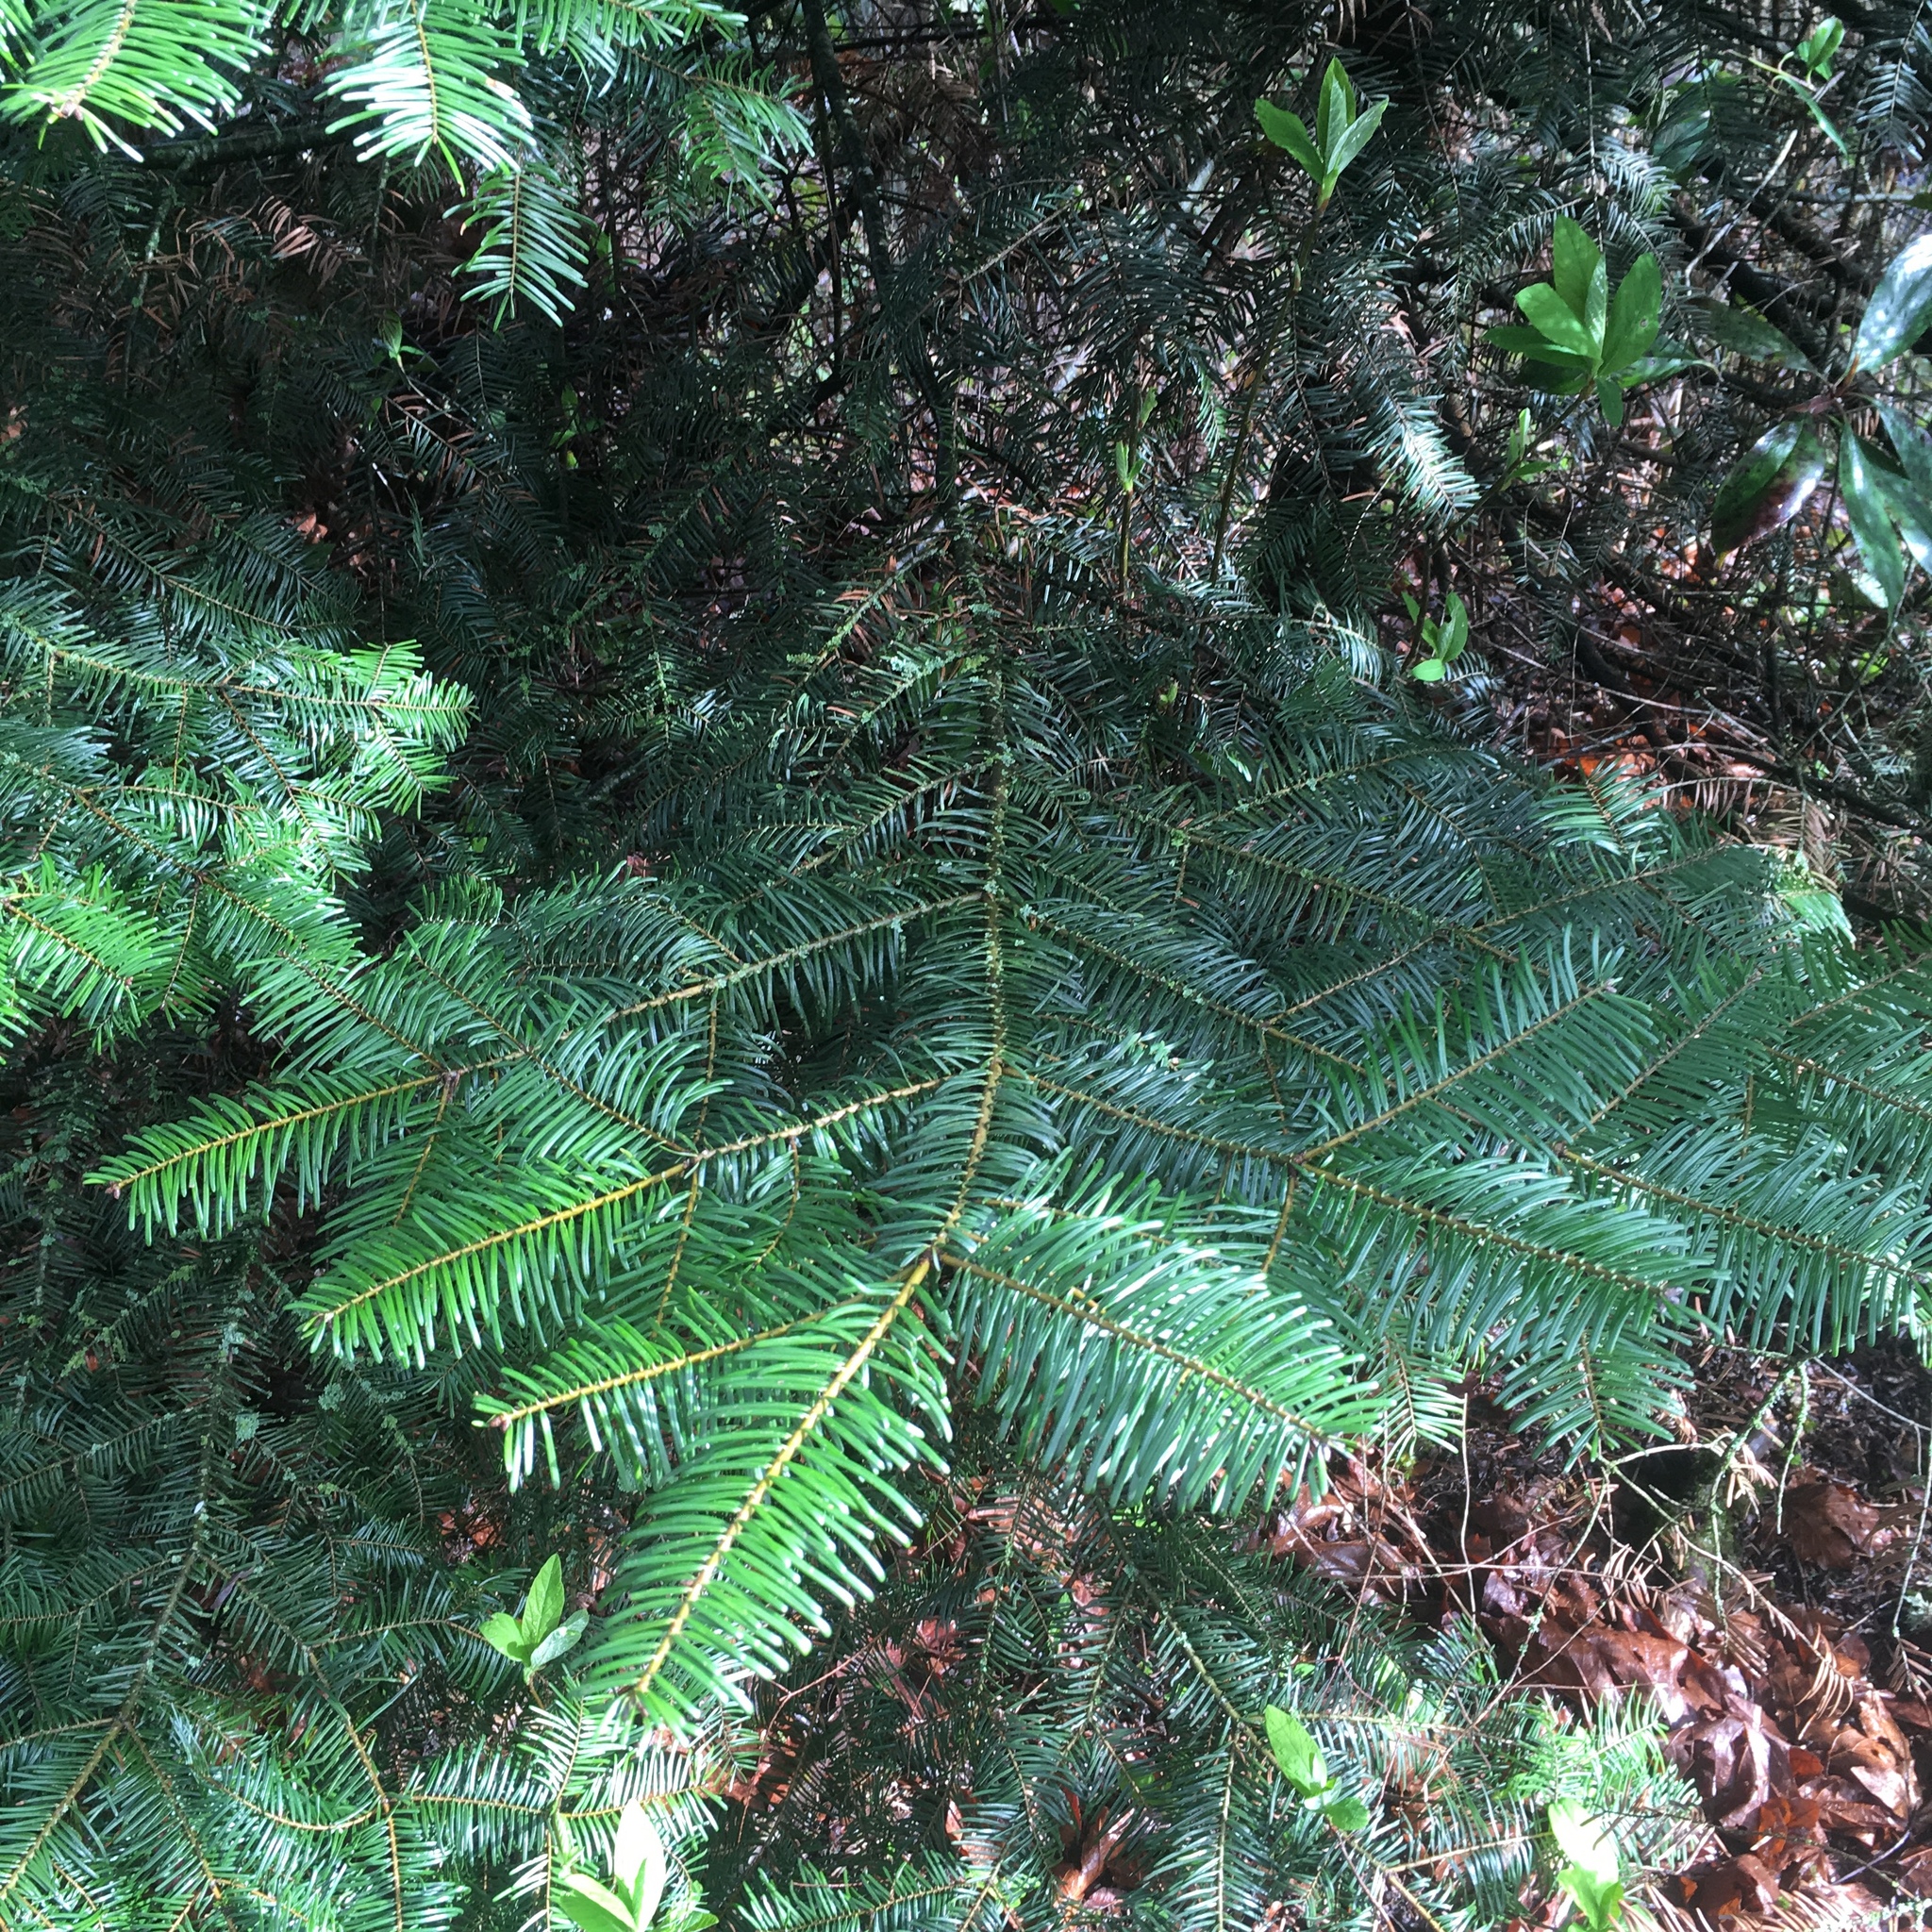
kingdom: Plantae
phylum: Tracheophyta
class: Pinopsida
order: Pinales
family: Pinaceae
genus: Abies
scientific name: Abies grandis
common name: Giant fir
